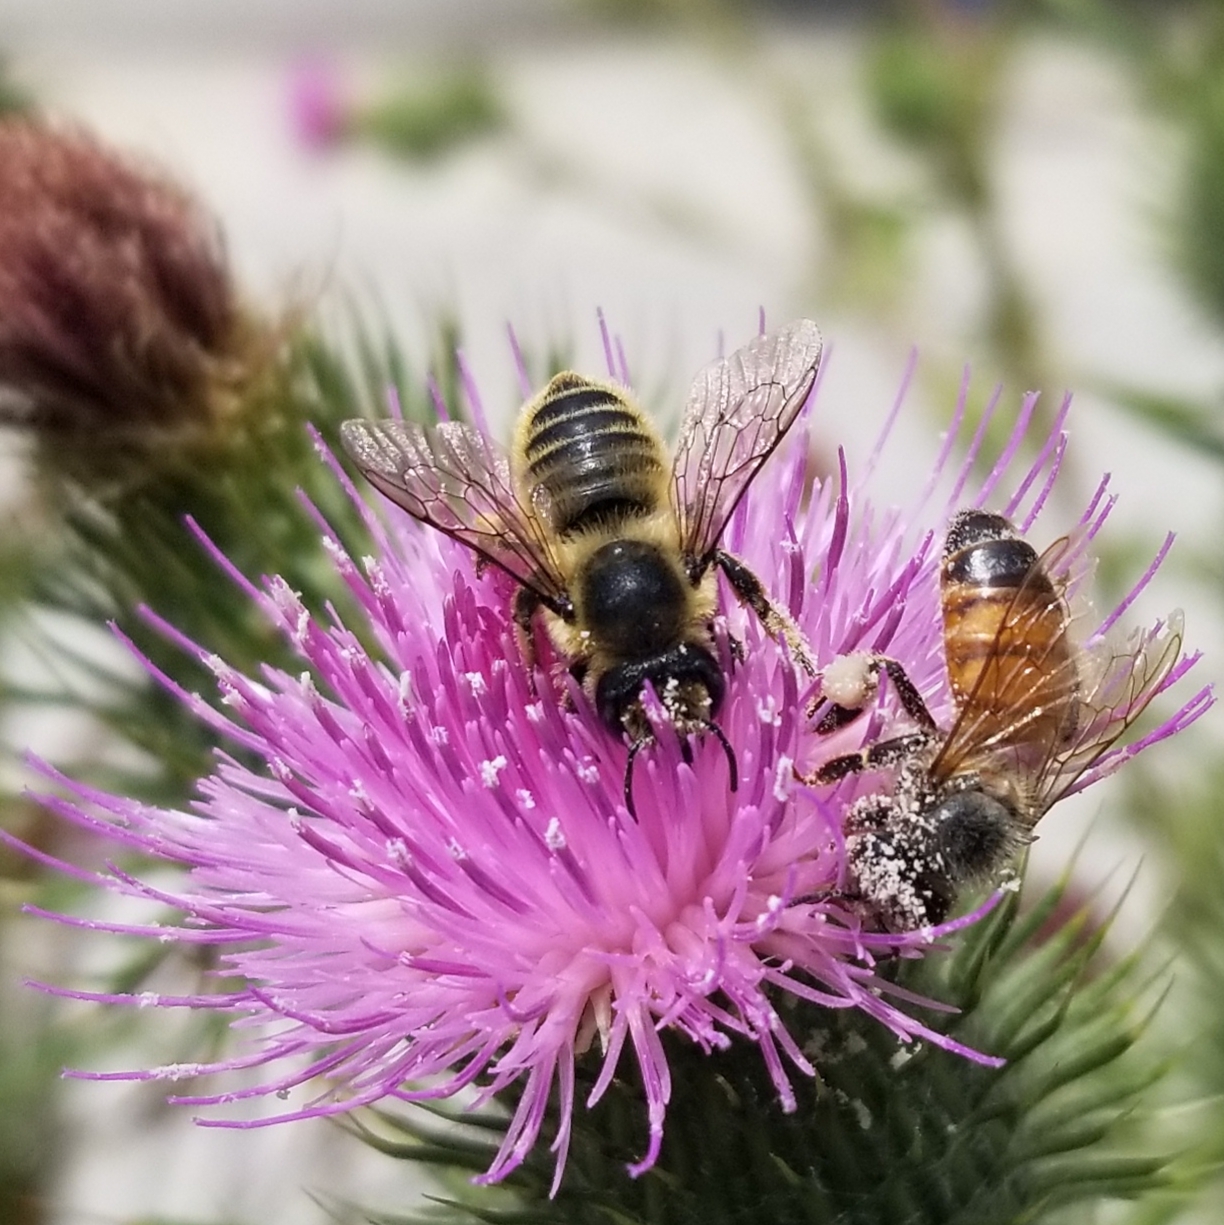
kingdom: Animalia
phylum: Arthropoda
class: Insecta
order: Hymenoptera
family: Megachilidae
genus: Megachile
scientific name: Megachile perihirta
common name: Western leafcutter
